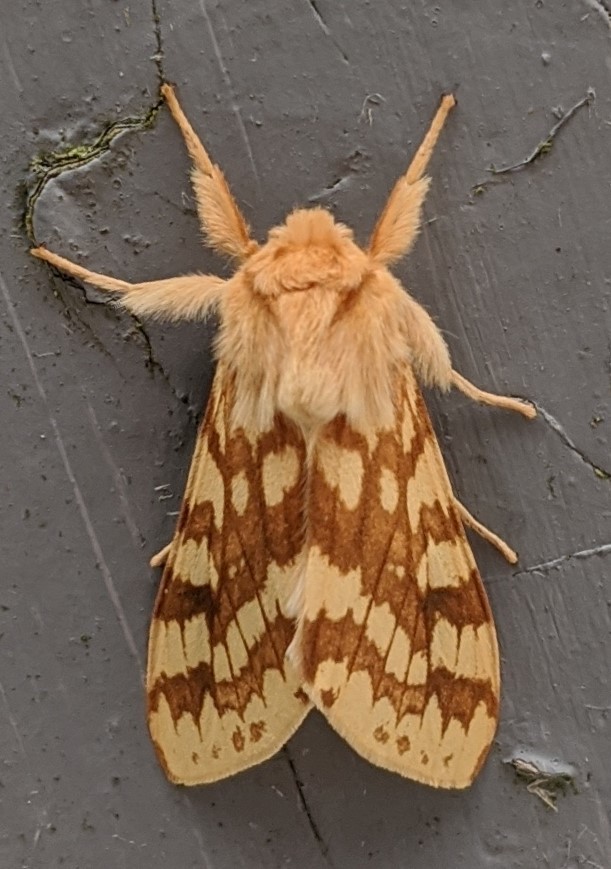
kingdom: Animalia
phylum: Arthropoda
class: Insecta
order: Lepidoptera
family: Erebidae
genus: Lophocampa
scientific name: Lophocampa maculata
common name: Spotted tussock moth
